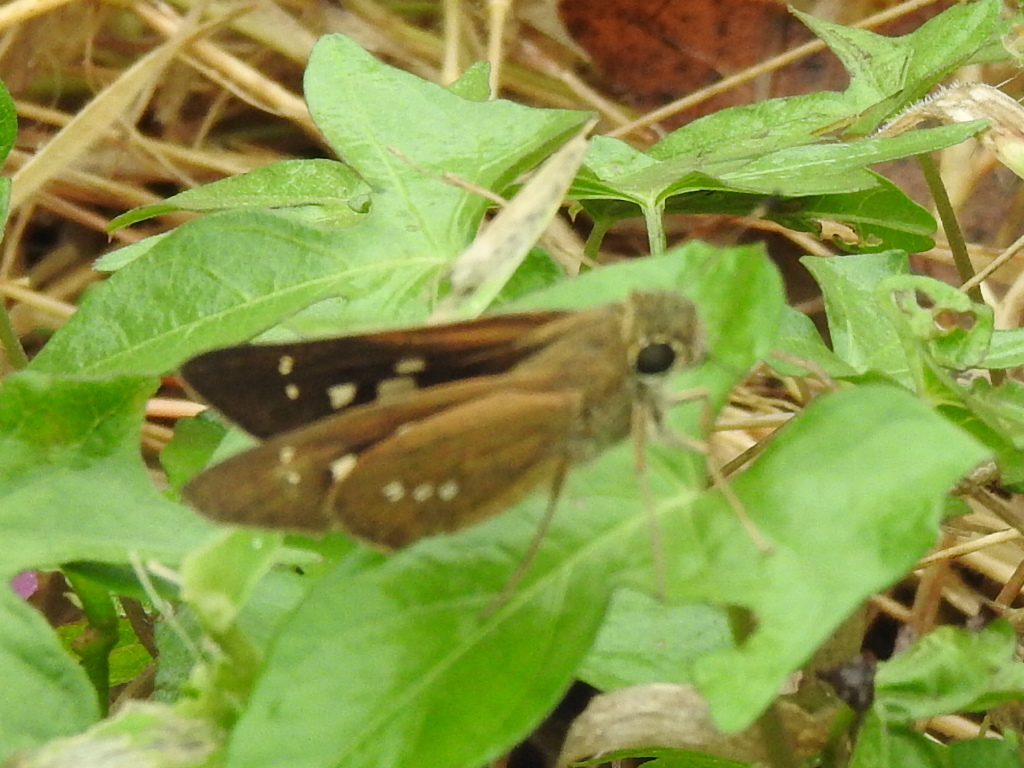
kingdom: Animalia
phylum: Arthropoda
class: Insecta
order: Lepidoptera
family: Hesperiidae
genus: Calpodes
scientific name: Calpodes ethlius
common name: Brazilian skipper
